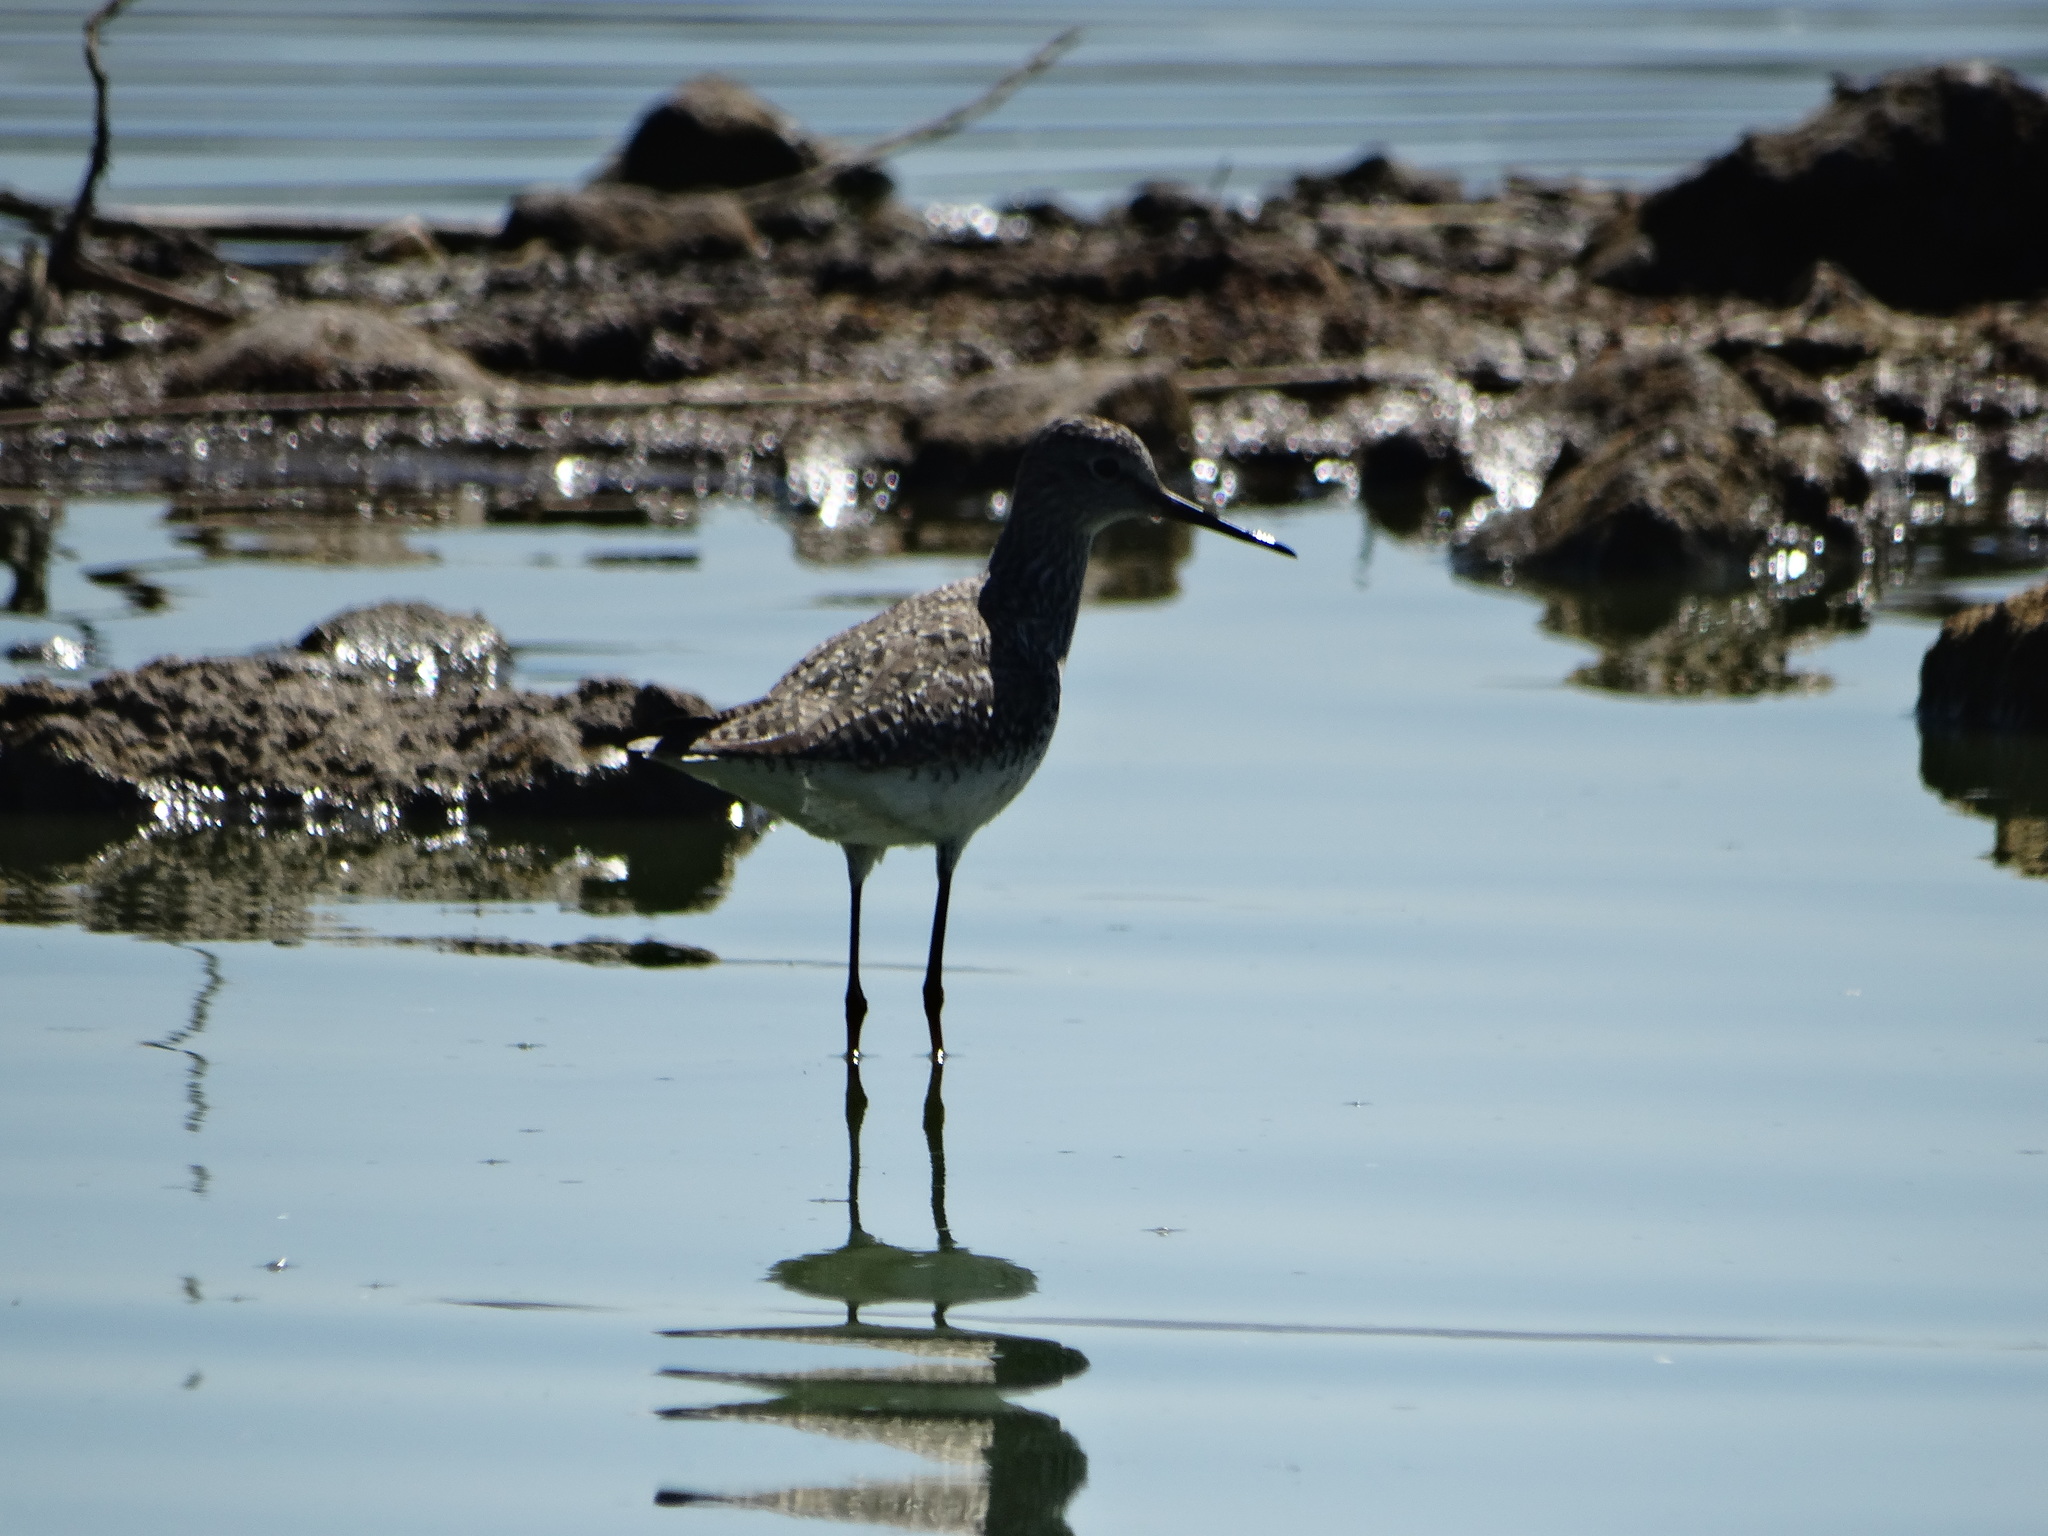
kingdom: Animalia
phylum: Chordata
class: Aves
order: Charadriiformes
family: Scolopacidae
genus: Tringa
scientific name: Tringa melanoleuca
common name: Greater yellowlegs
